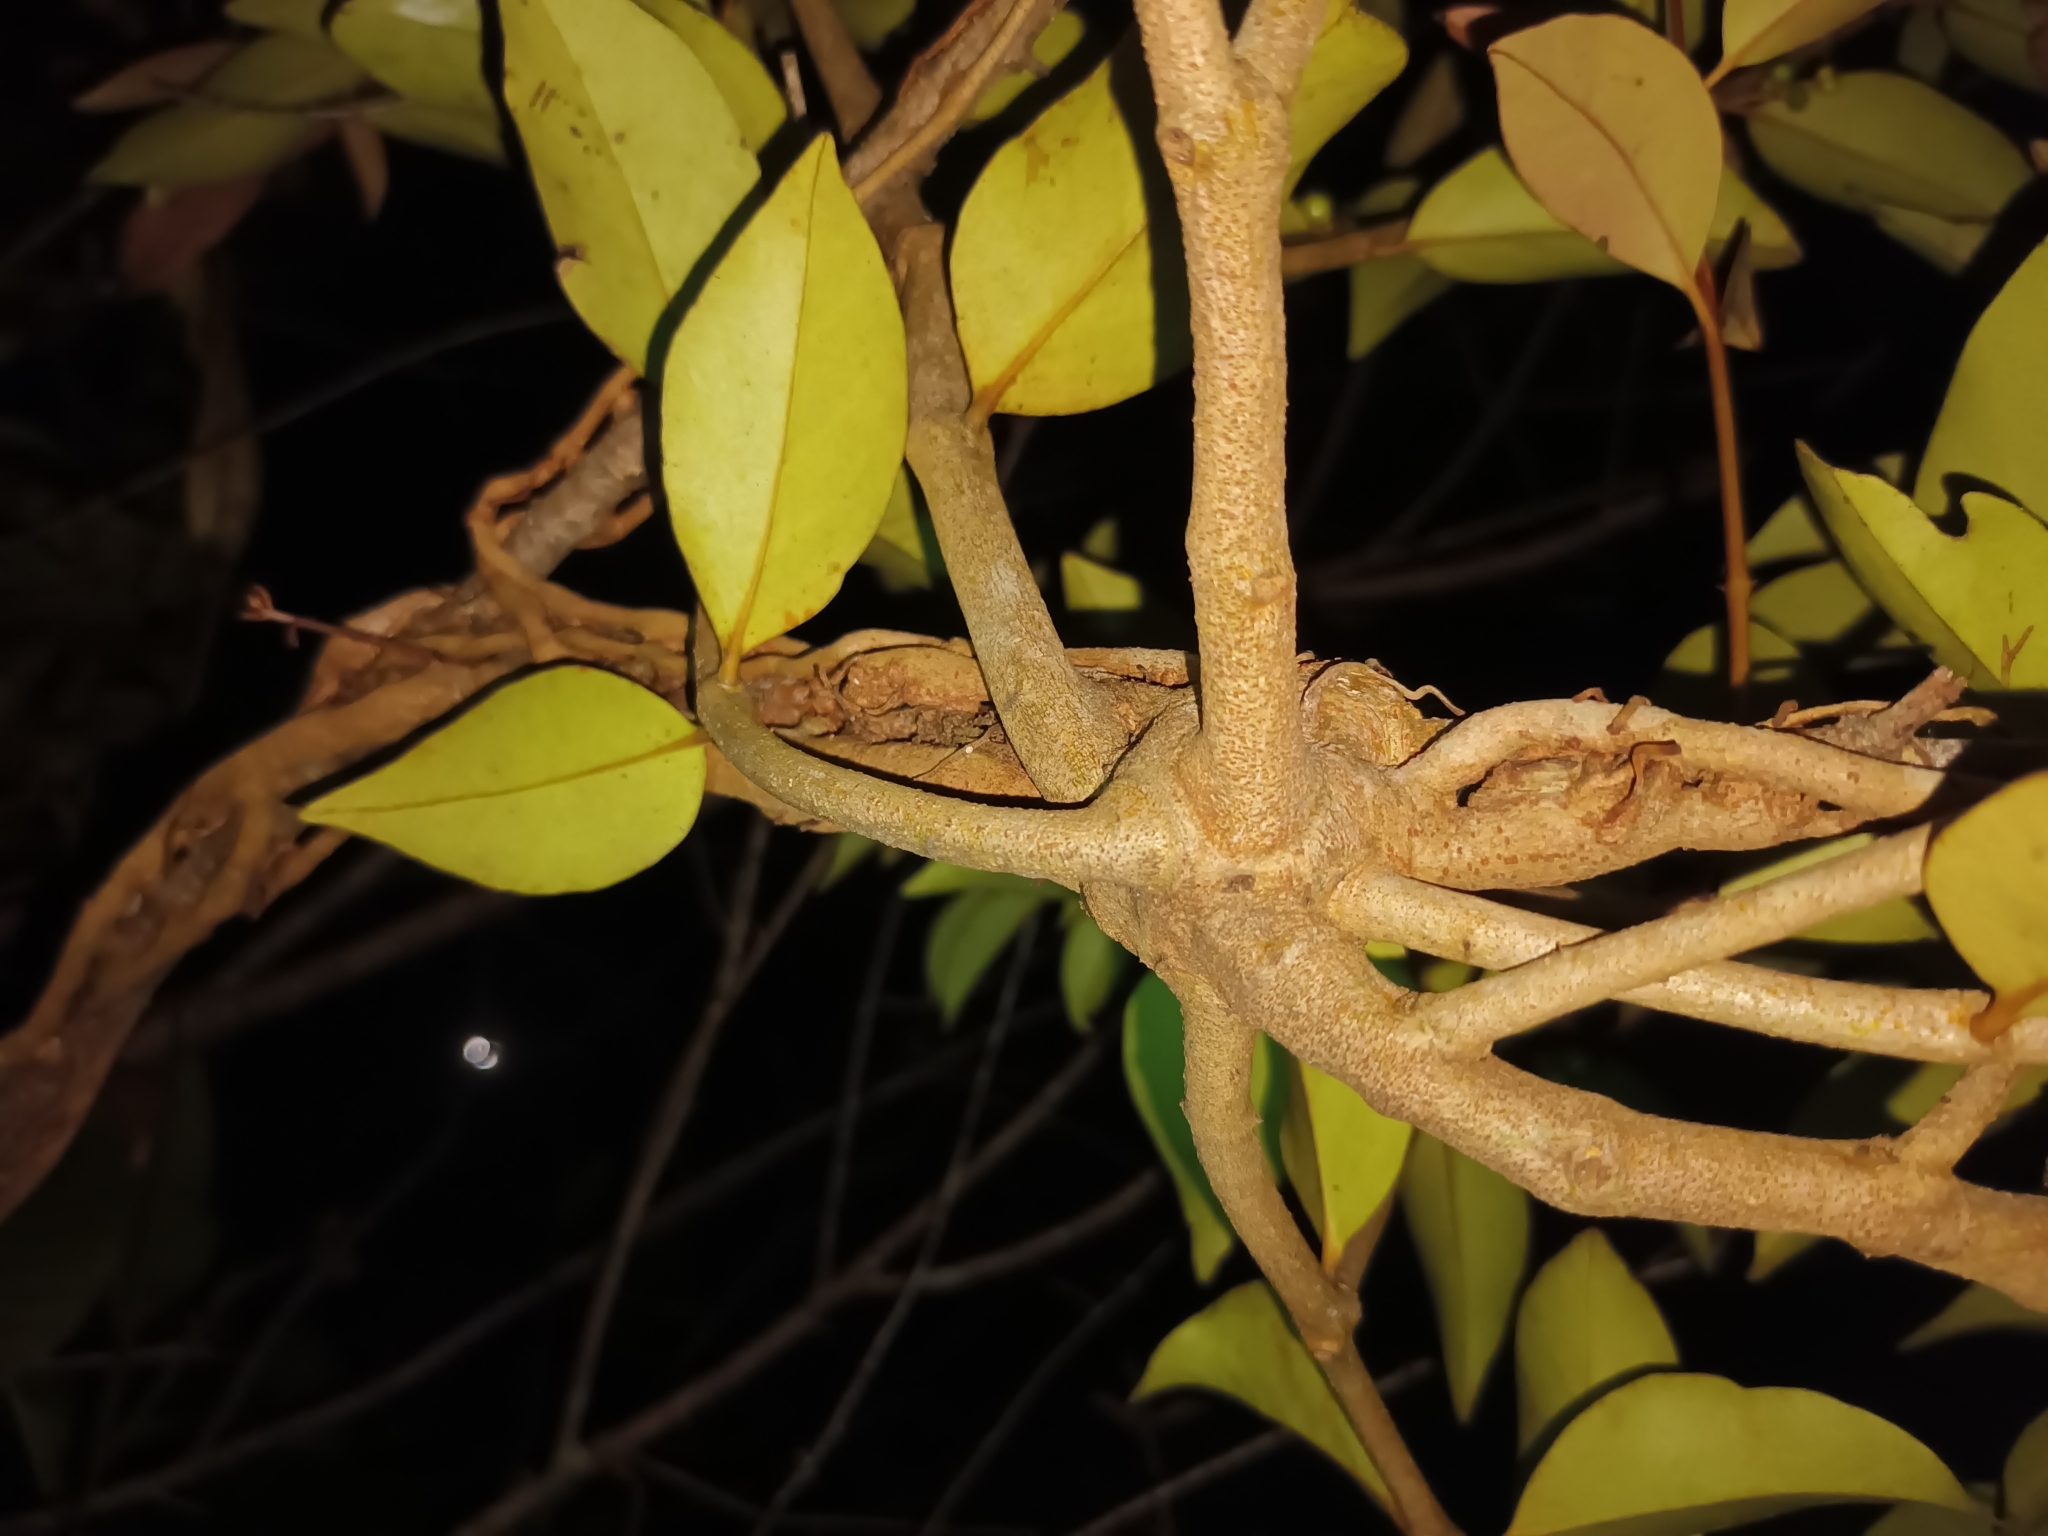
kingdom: Plantae
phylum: Tracheophyta
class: Magnoliopsida
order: Santalales
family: Loranthaceae
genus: Macrosolen
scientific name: Macrosolen cochinchinensis
